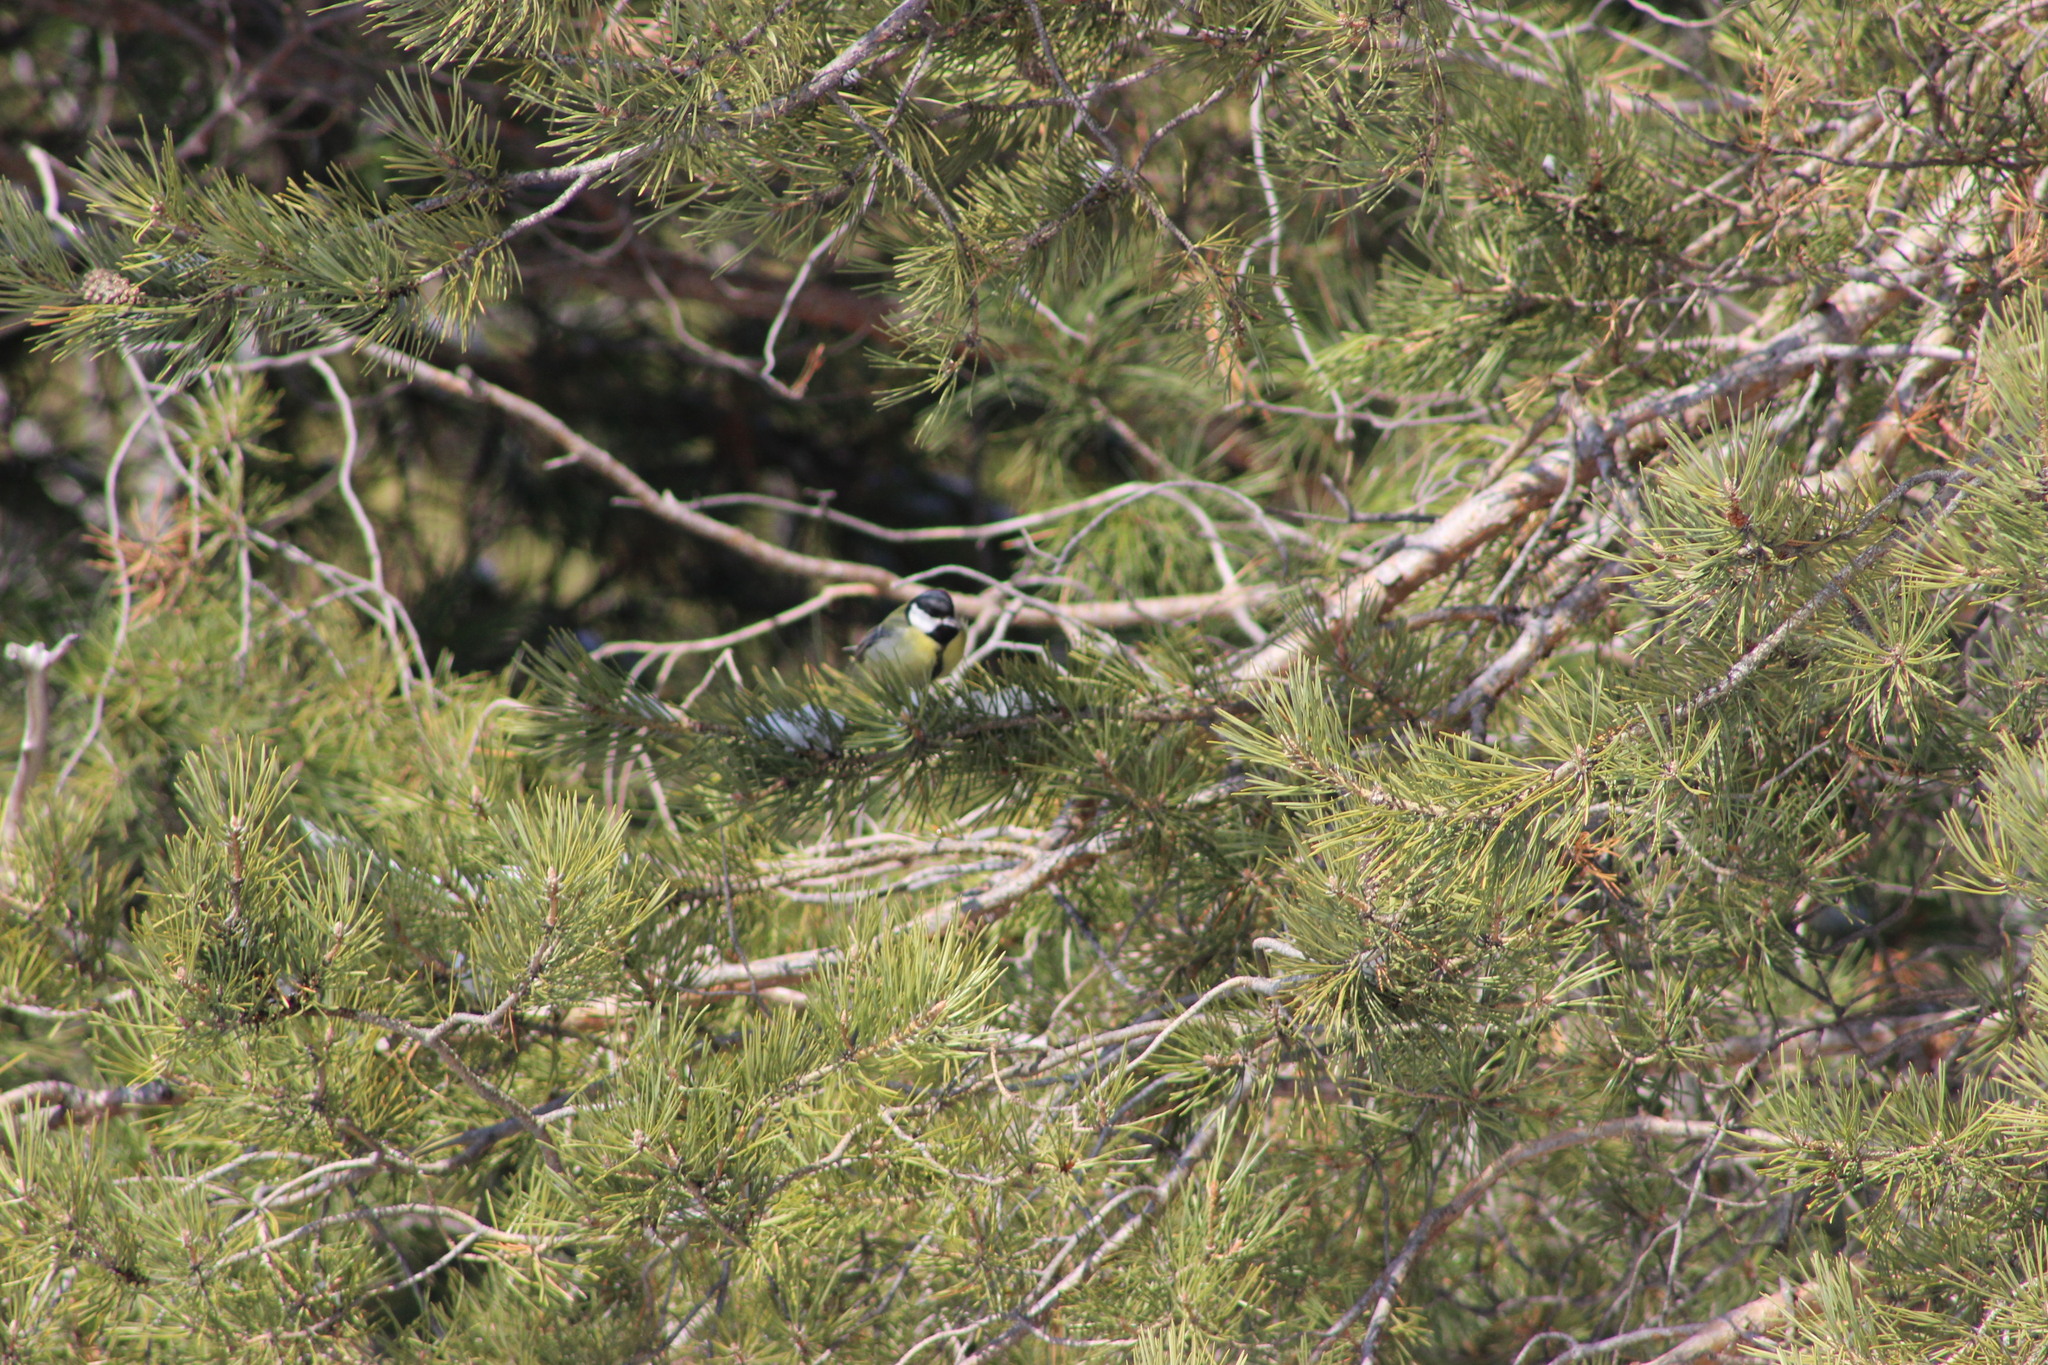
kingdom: Animalia
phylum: Chordata
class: Aves
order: Passeriformes
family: Paridae
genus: Parus
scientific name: Parus major
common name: Great tit
